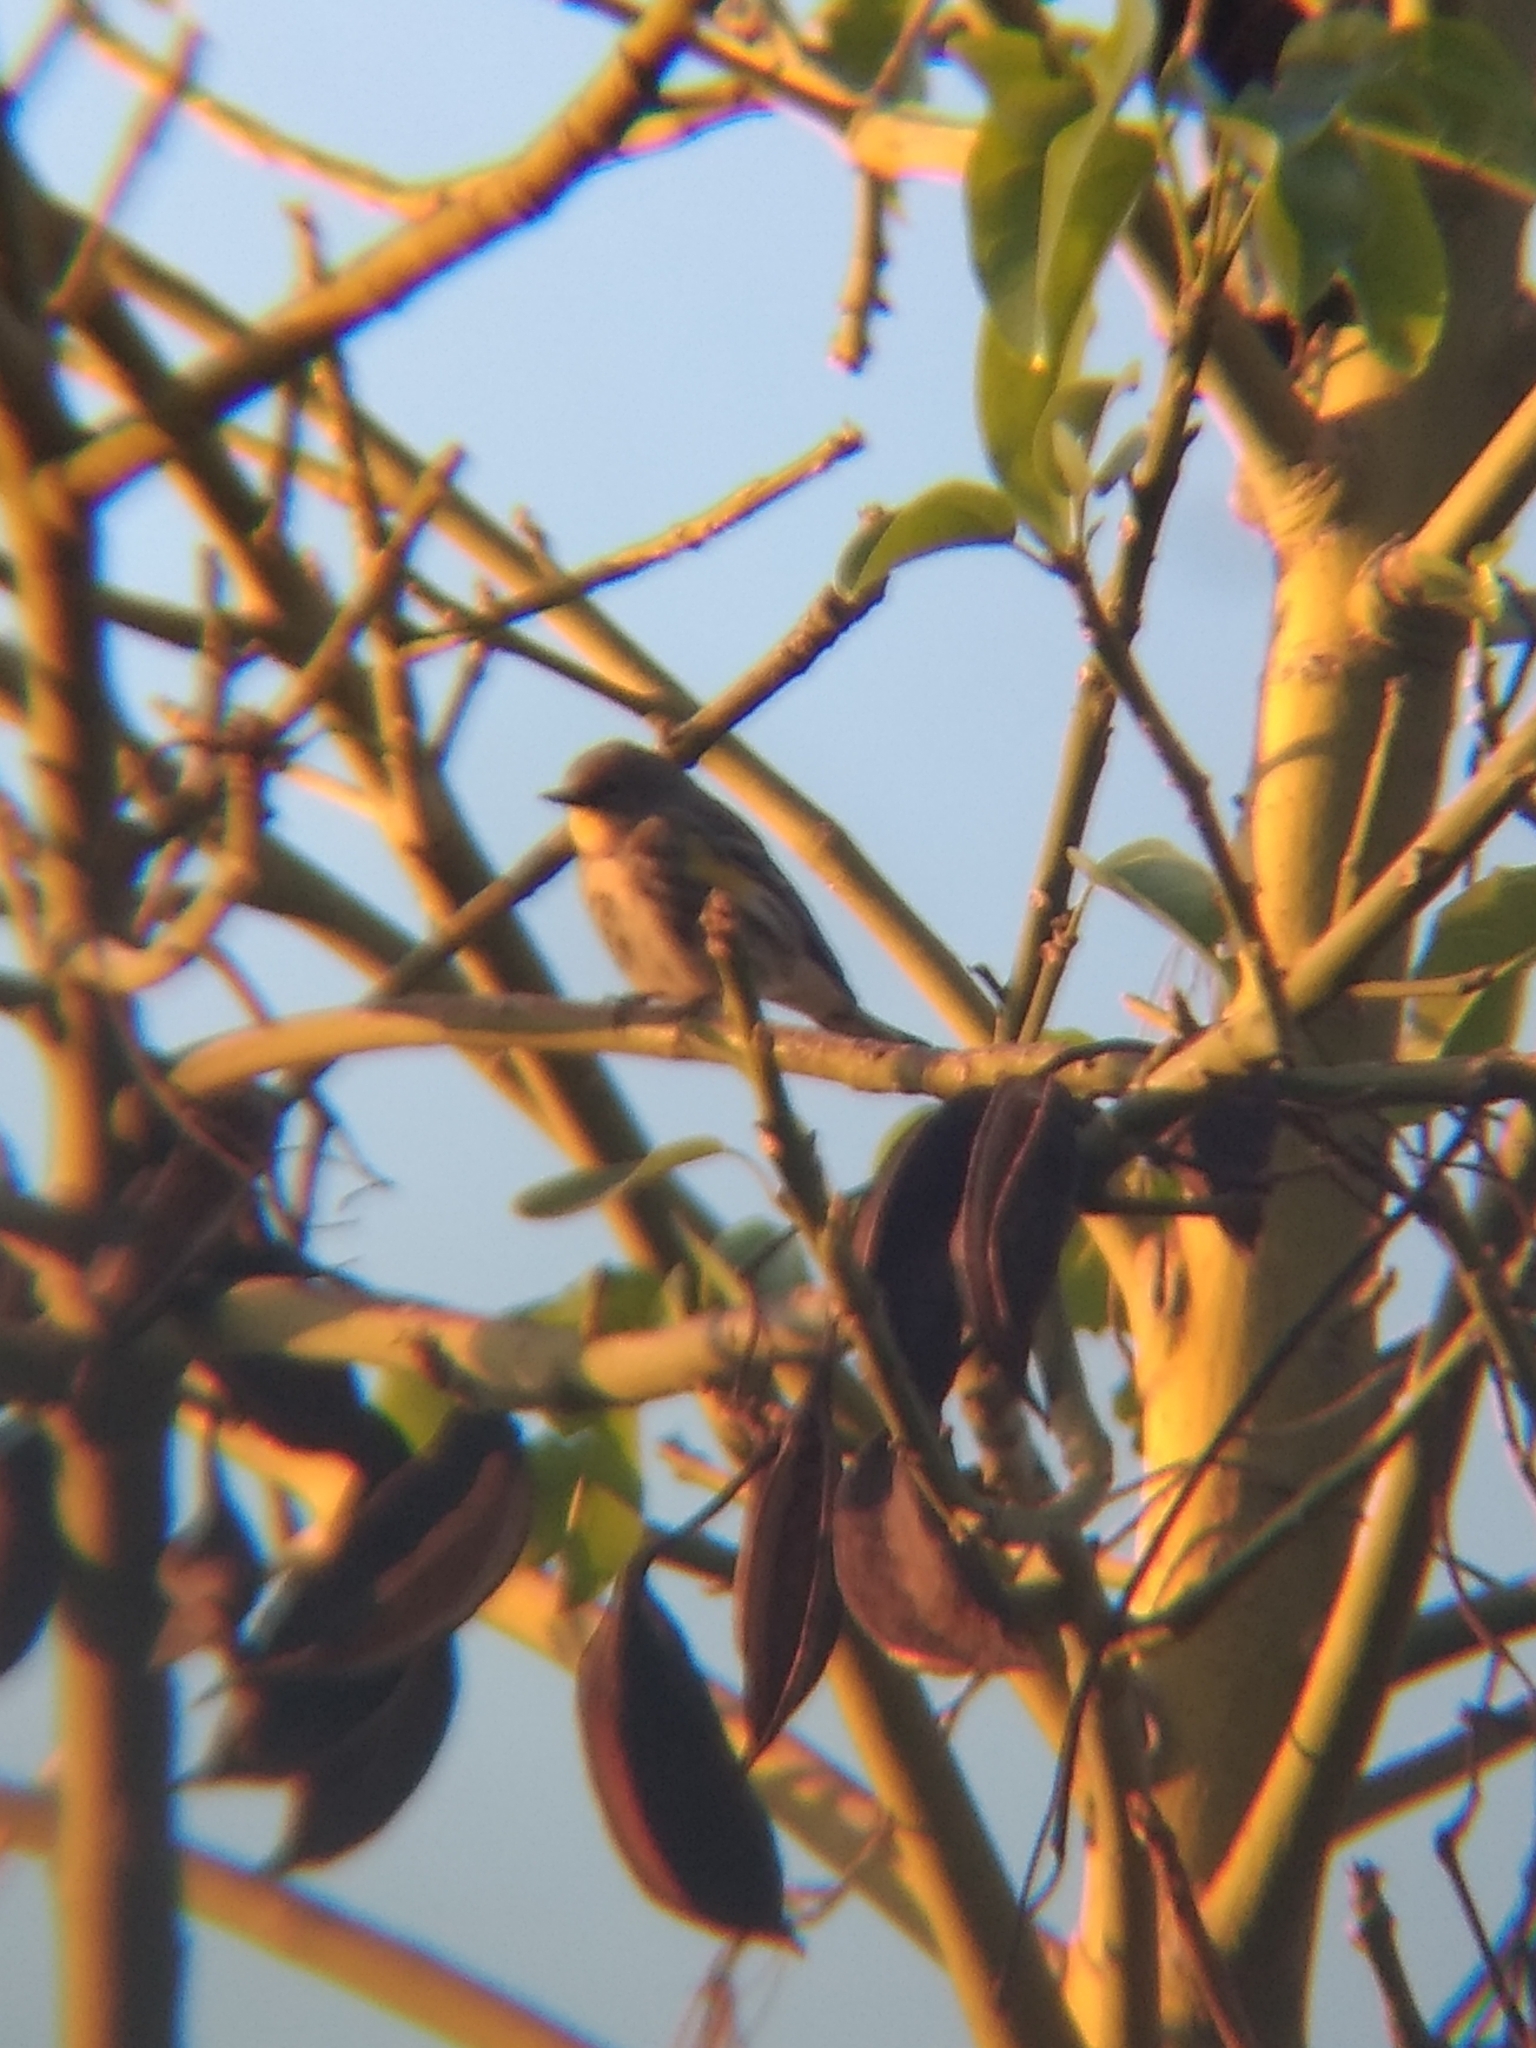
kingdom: Animalia
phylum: Chordata
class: Aves
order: Passeriformes
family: Parulidae
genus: Setophaga
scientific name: Setophaga coronata
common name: Myrtle warbler
